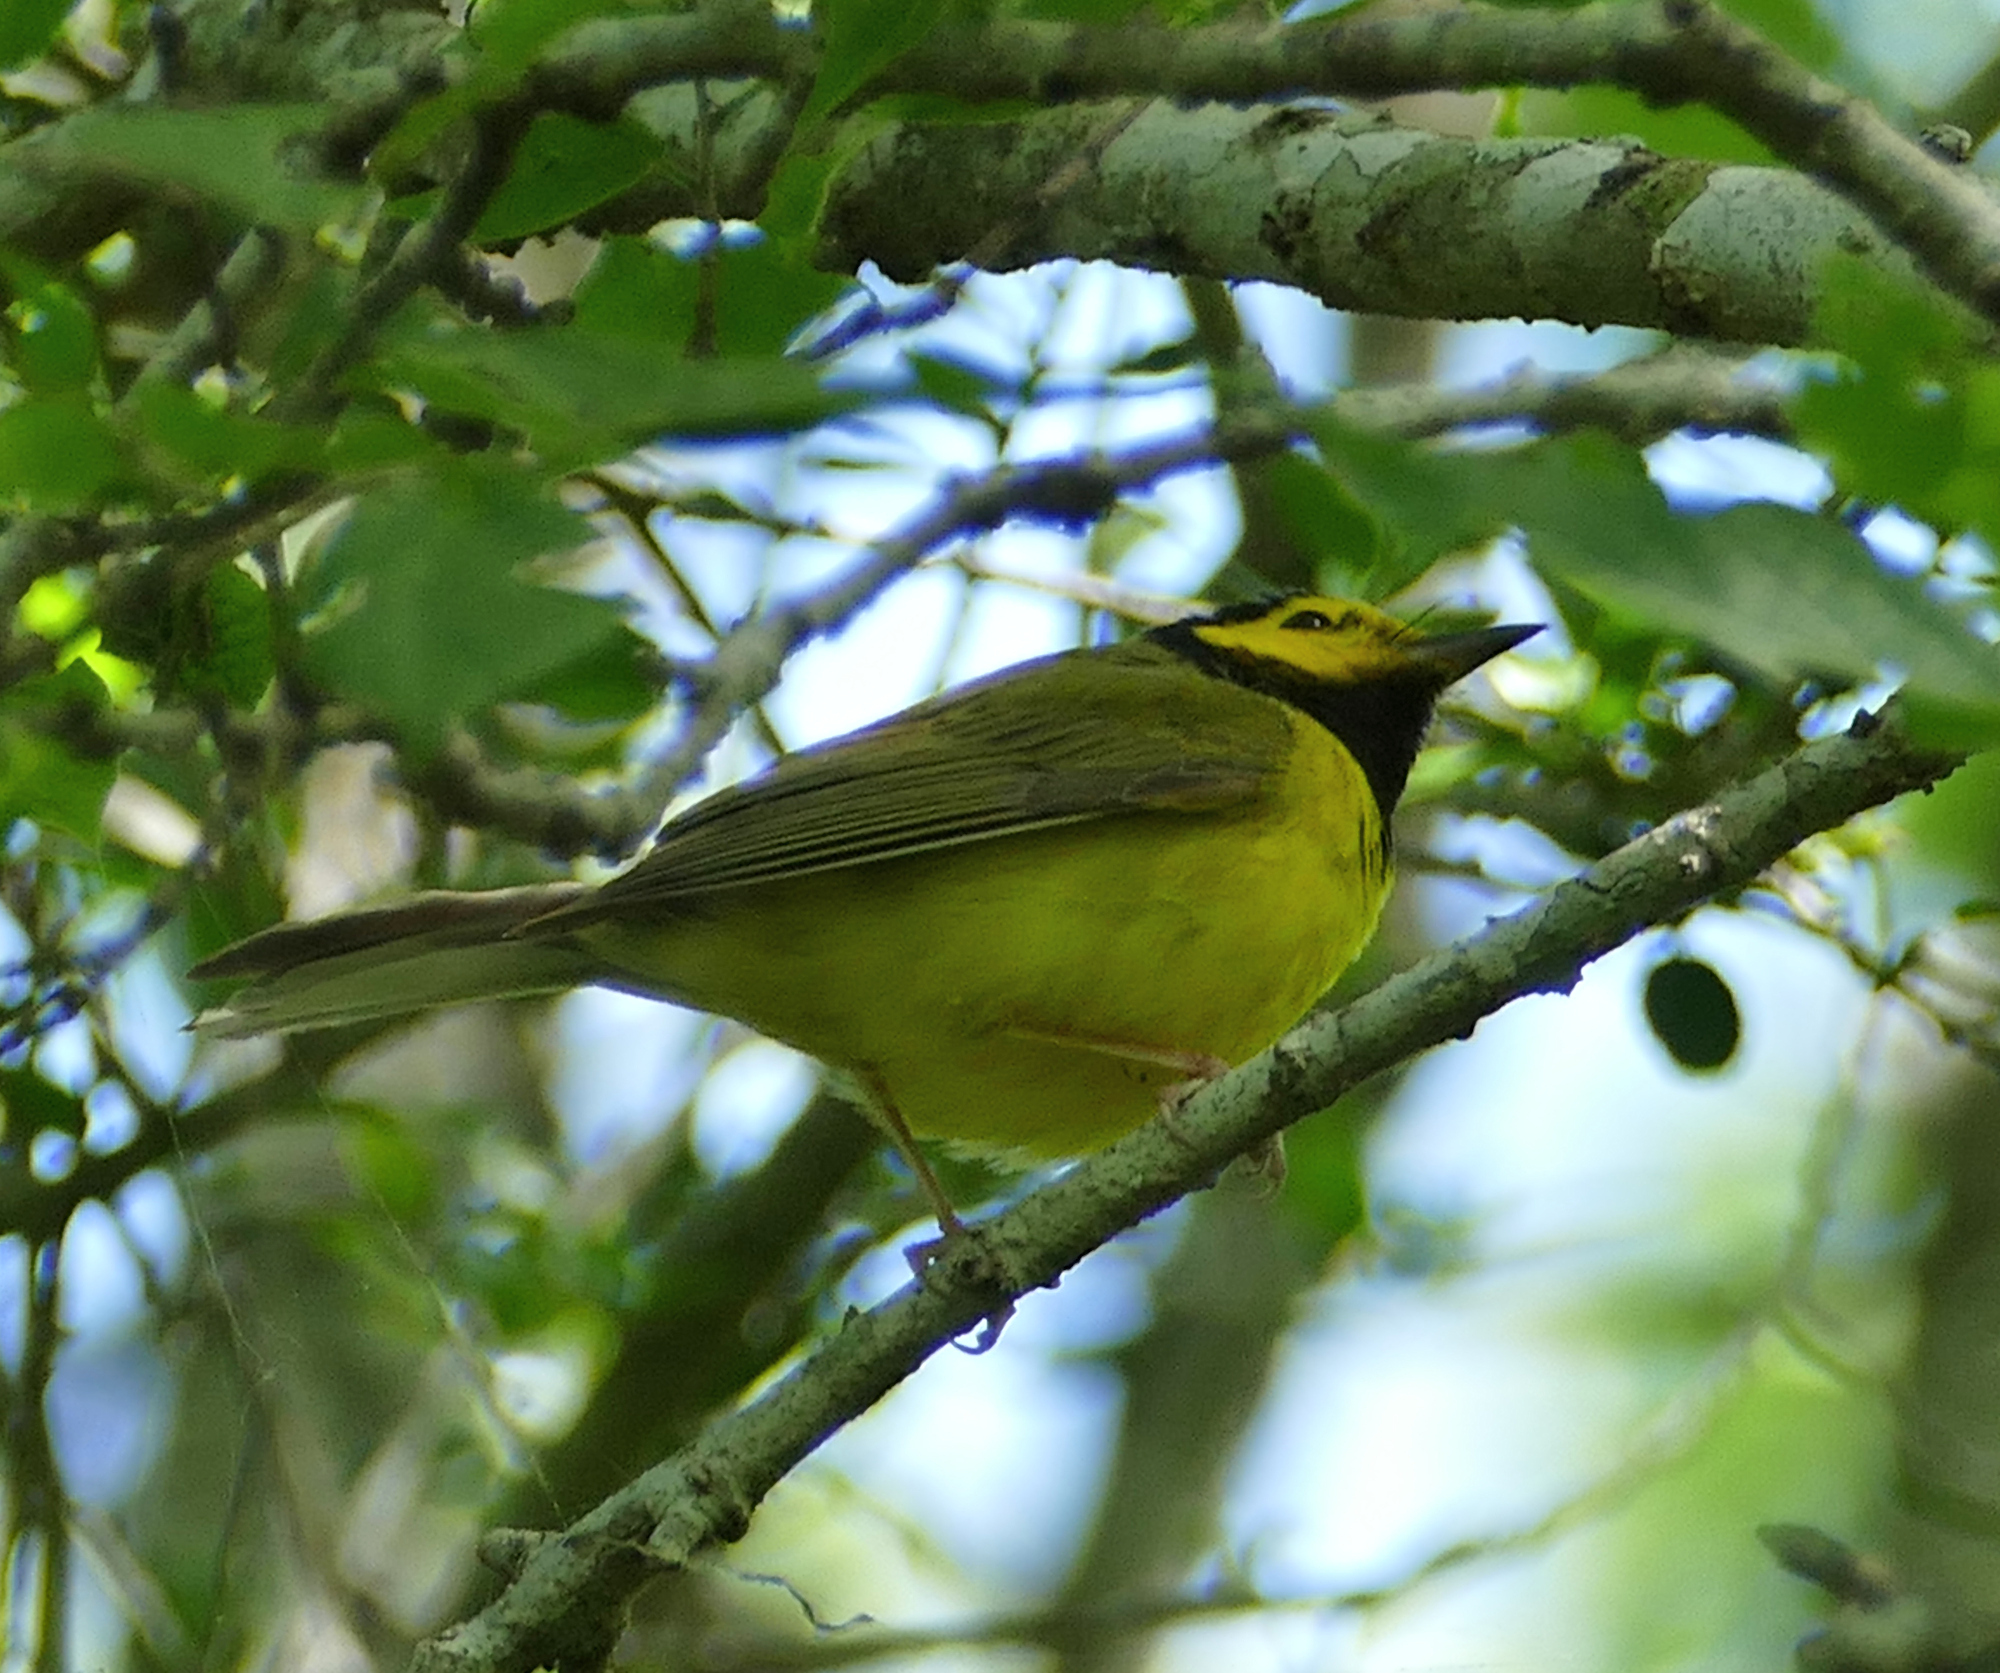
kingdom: Animalia
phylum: Chordata
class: Aves
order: Passeriformes
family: Parulidae
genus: Setophaga
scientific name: Setophaga citrina
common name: Hooded warbler
